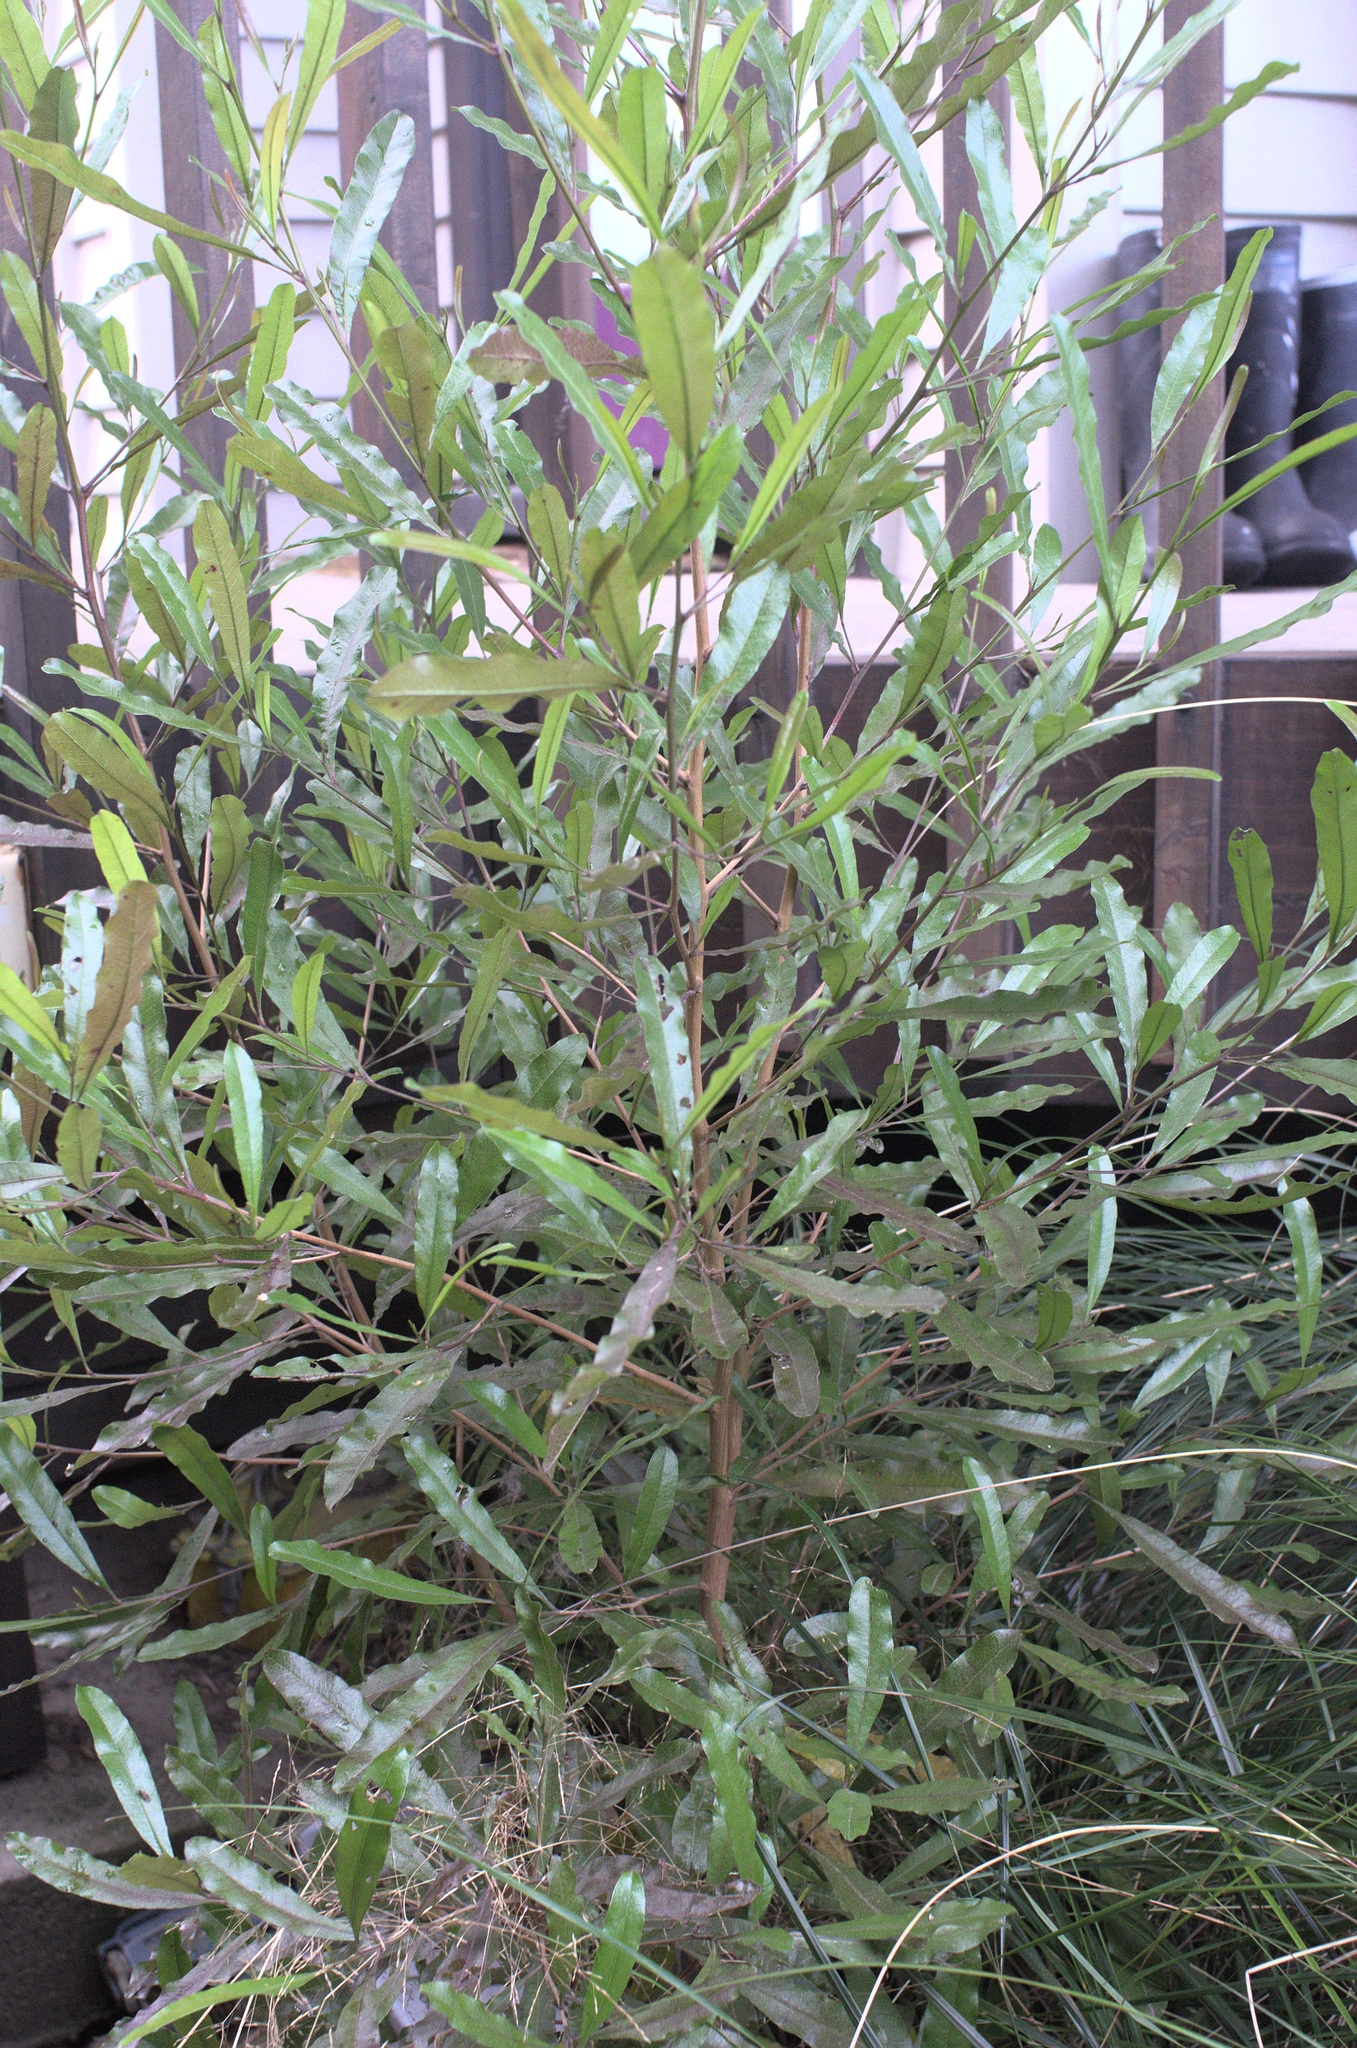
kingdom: Plantae
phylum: Tracheophyta
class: Magnoliopsida
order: Sapindales
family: Sapindaceae
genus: Dodonaea
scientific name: Dodonaea viscosa
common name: Hopbush
